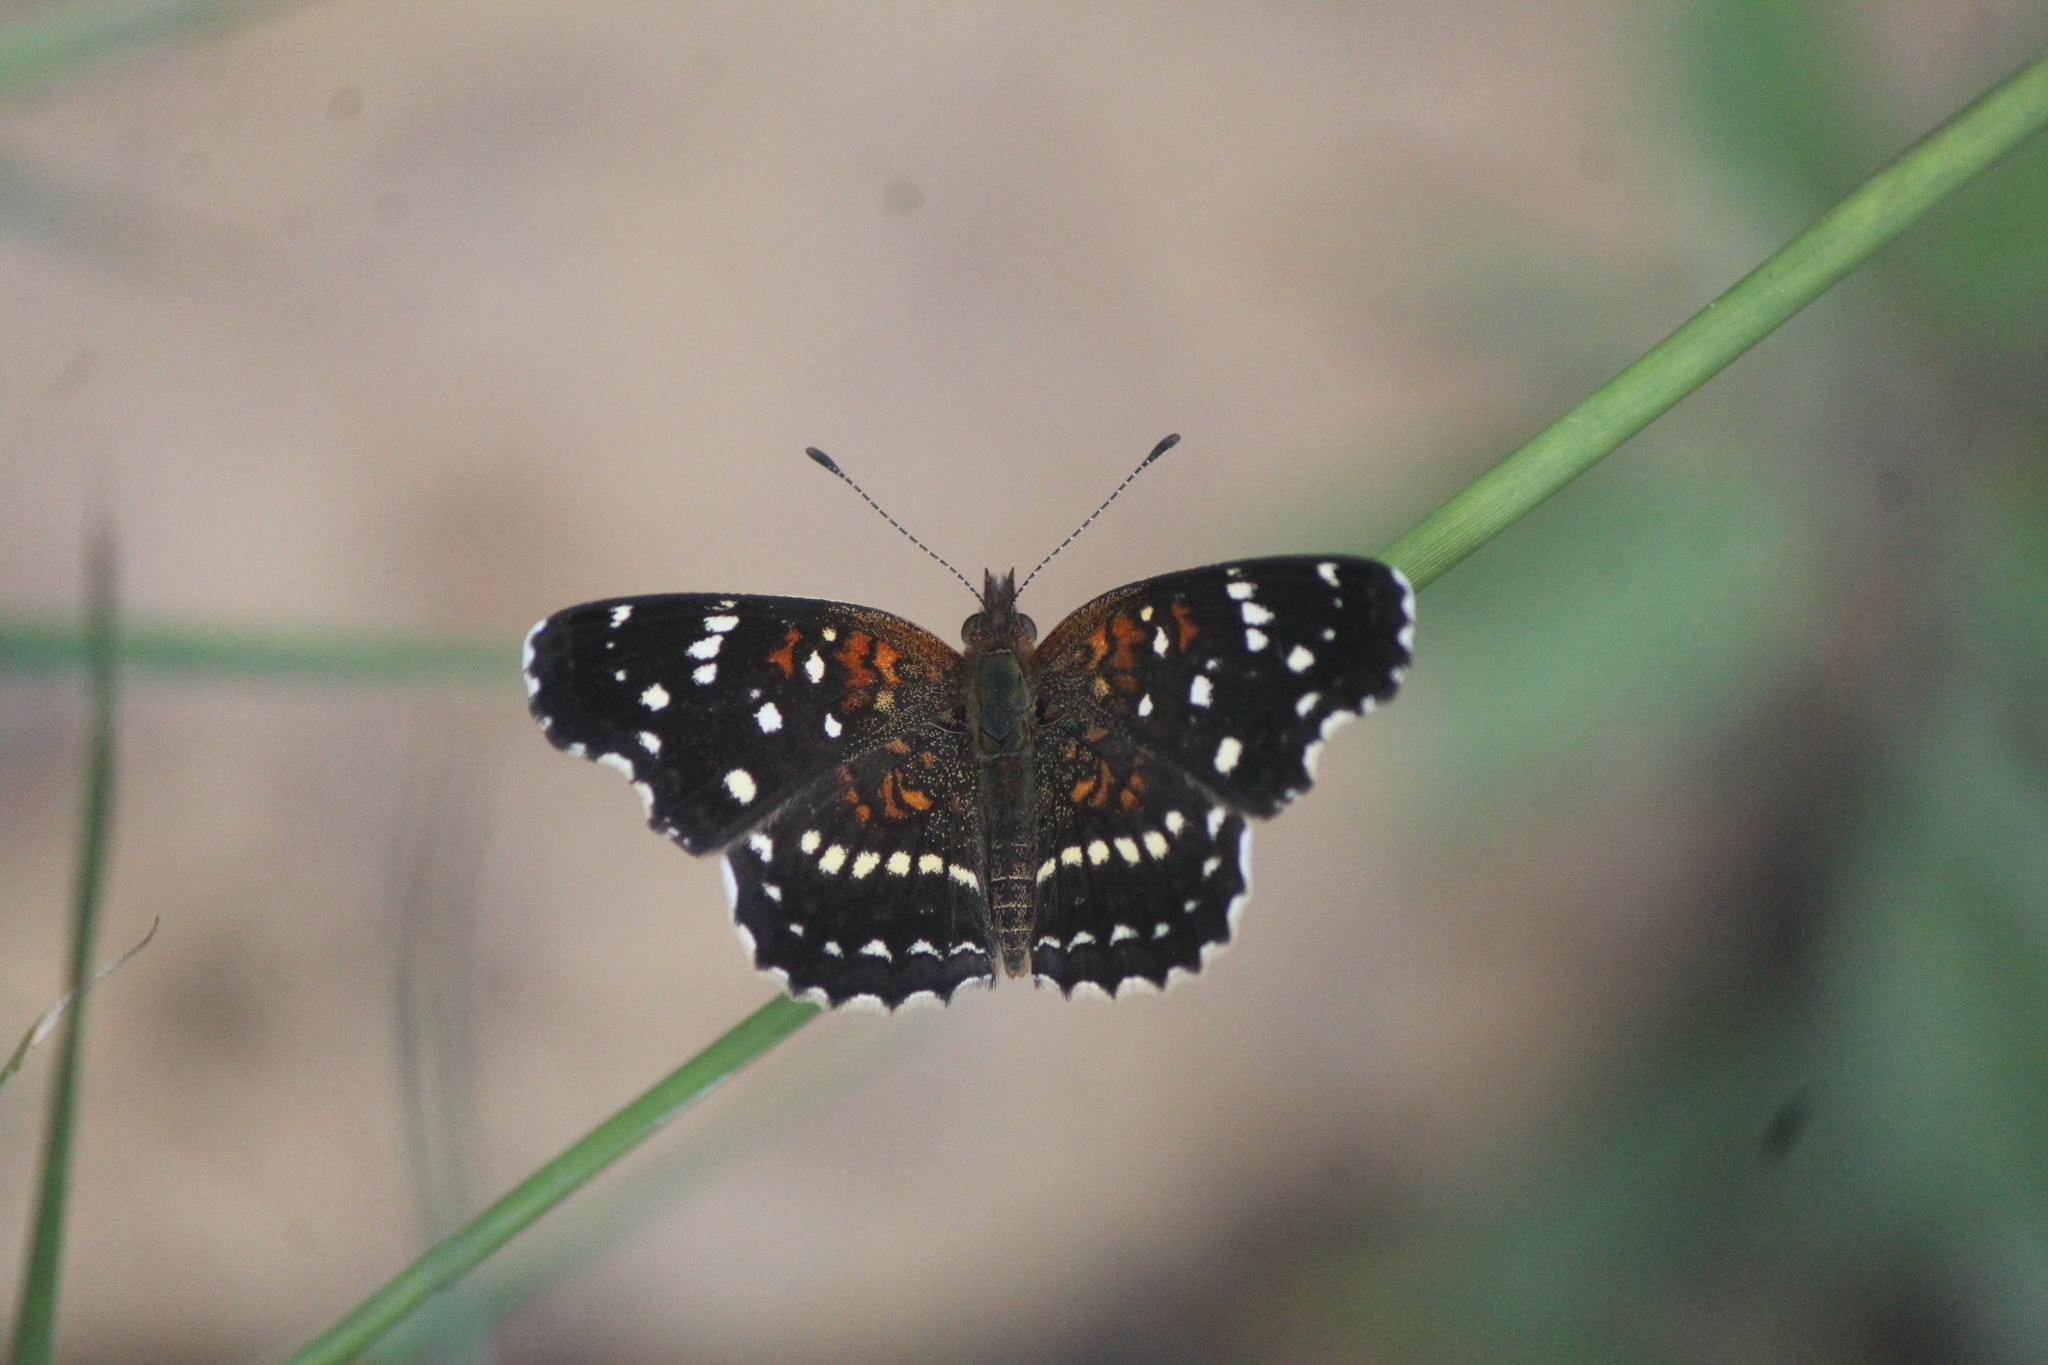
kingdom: Animalia
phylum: Arthropoda
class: Insecta
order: Lepidoptera
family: Nymphalidae
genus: Anthanassa
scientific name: Anthanassa texana
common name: Texan crescent
